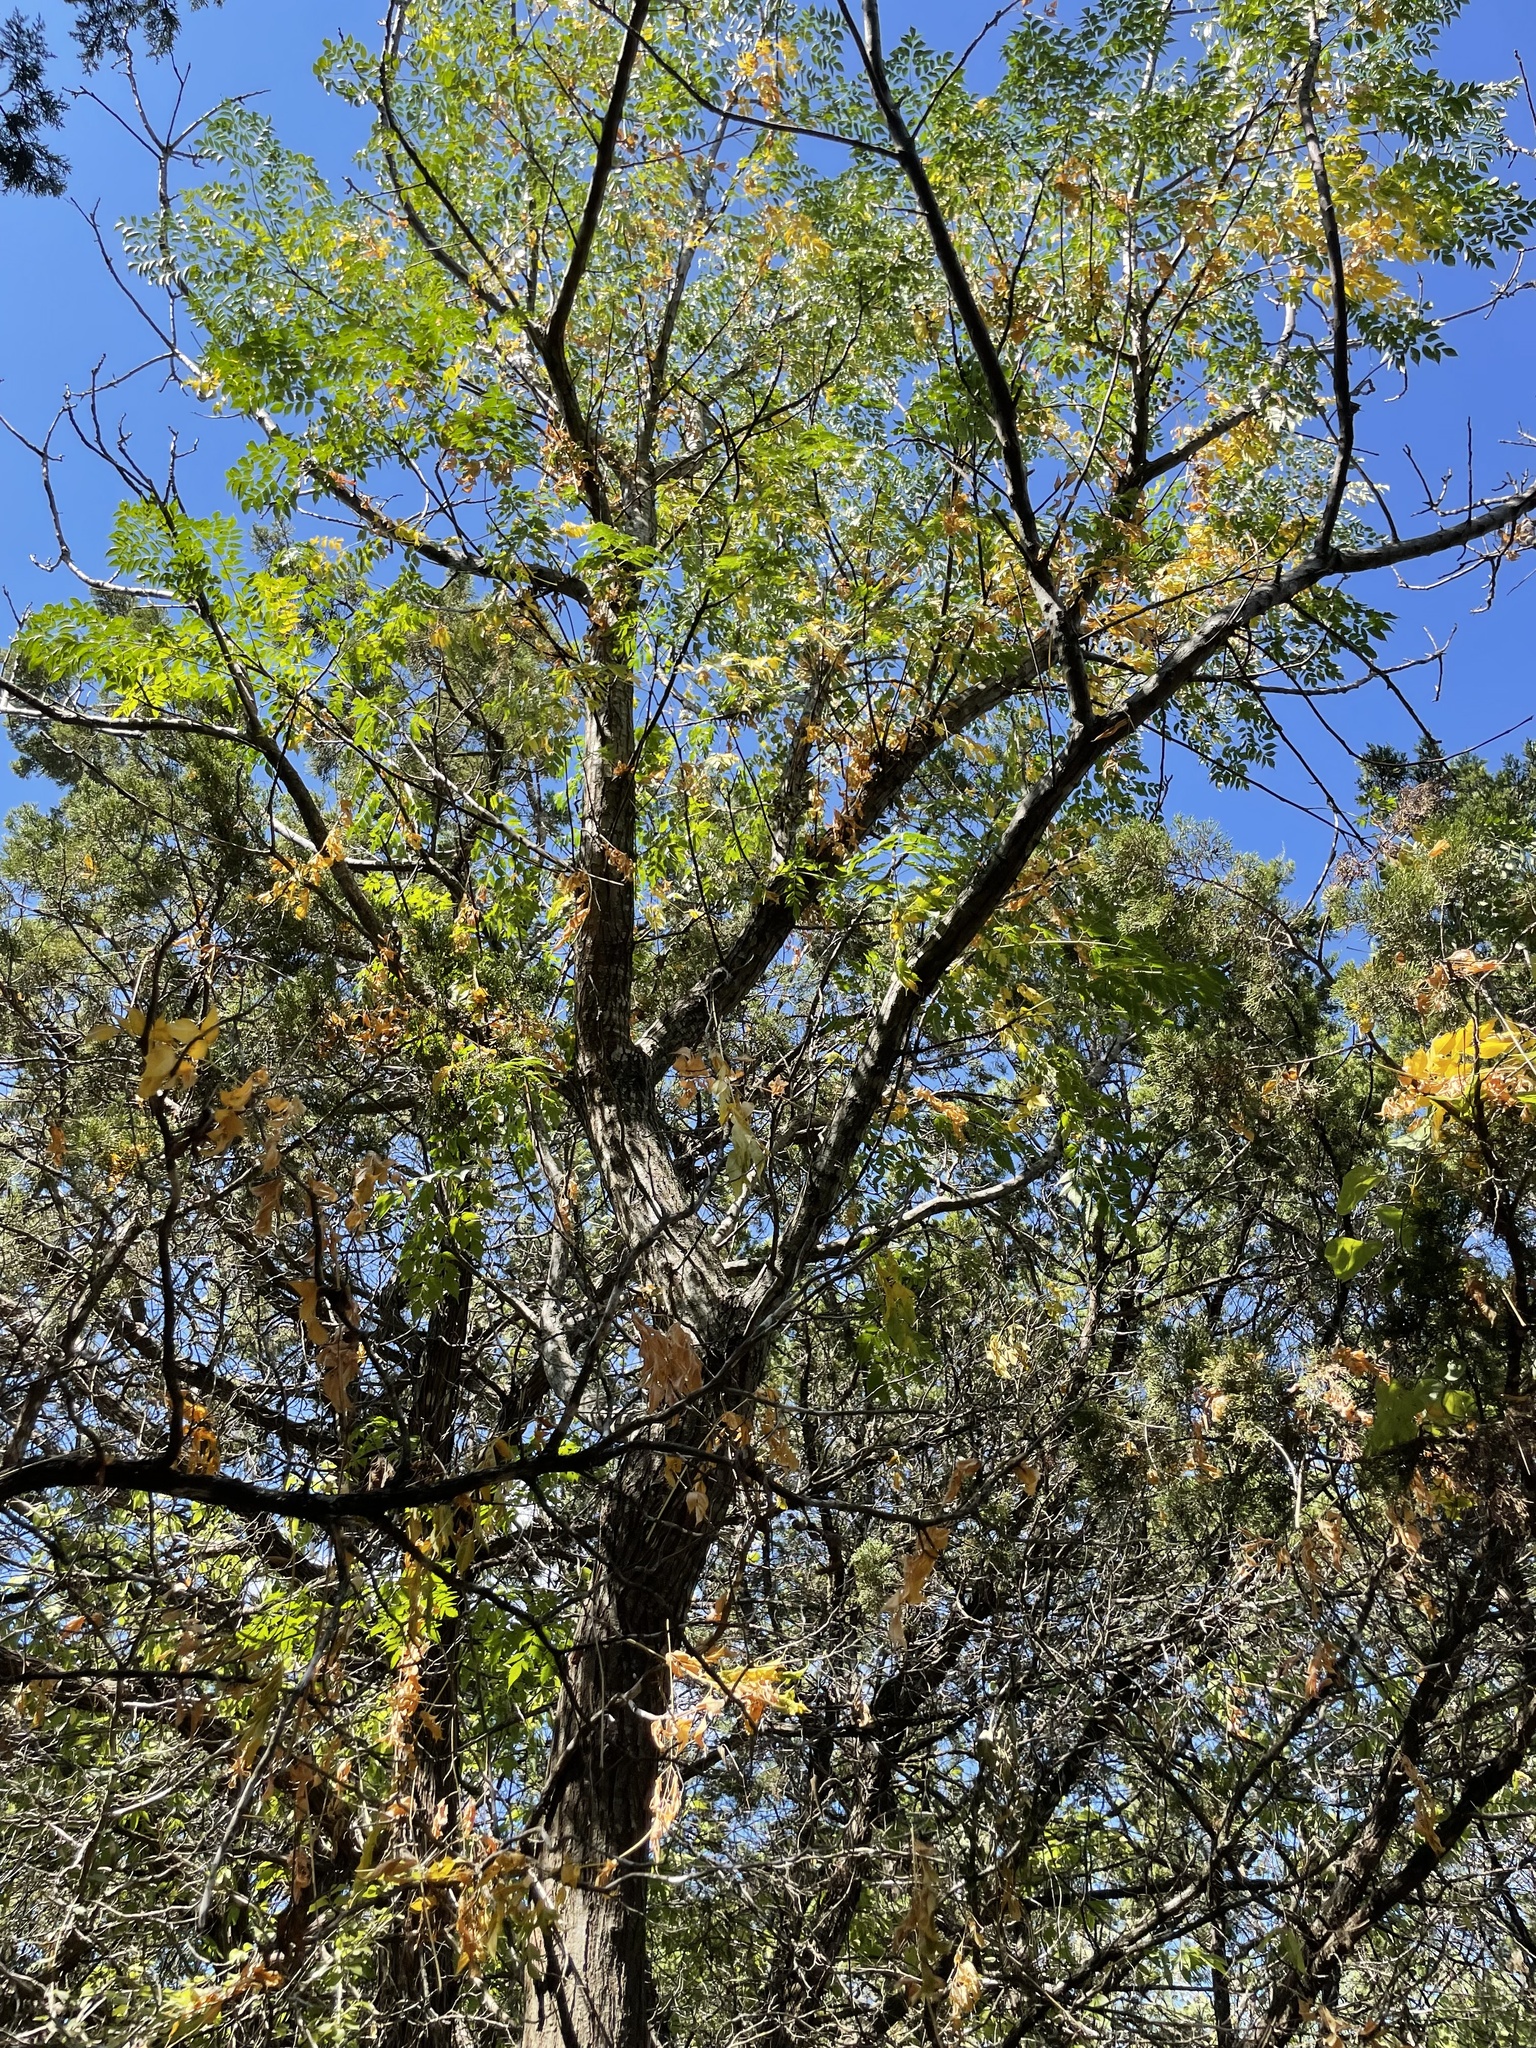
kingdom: Plantae
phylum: Tracheophyta
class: Magnoliopsida
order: Sapindales
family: Meliaceae
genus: Melia
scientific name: Melia azedarach
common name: Chinaberrytree
